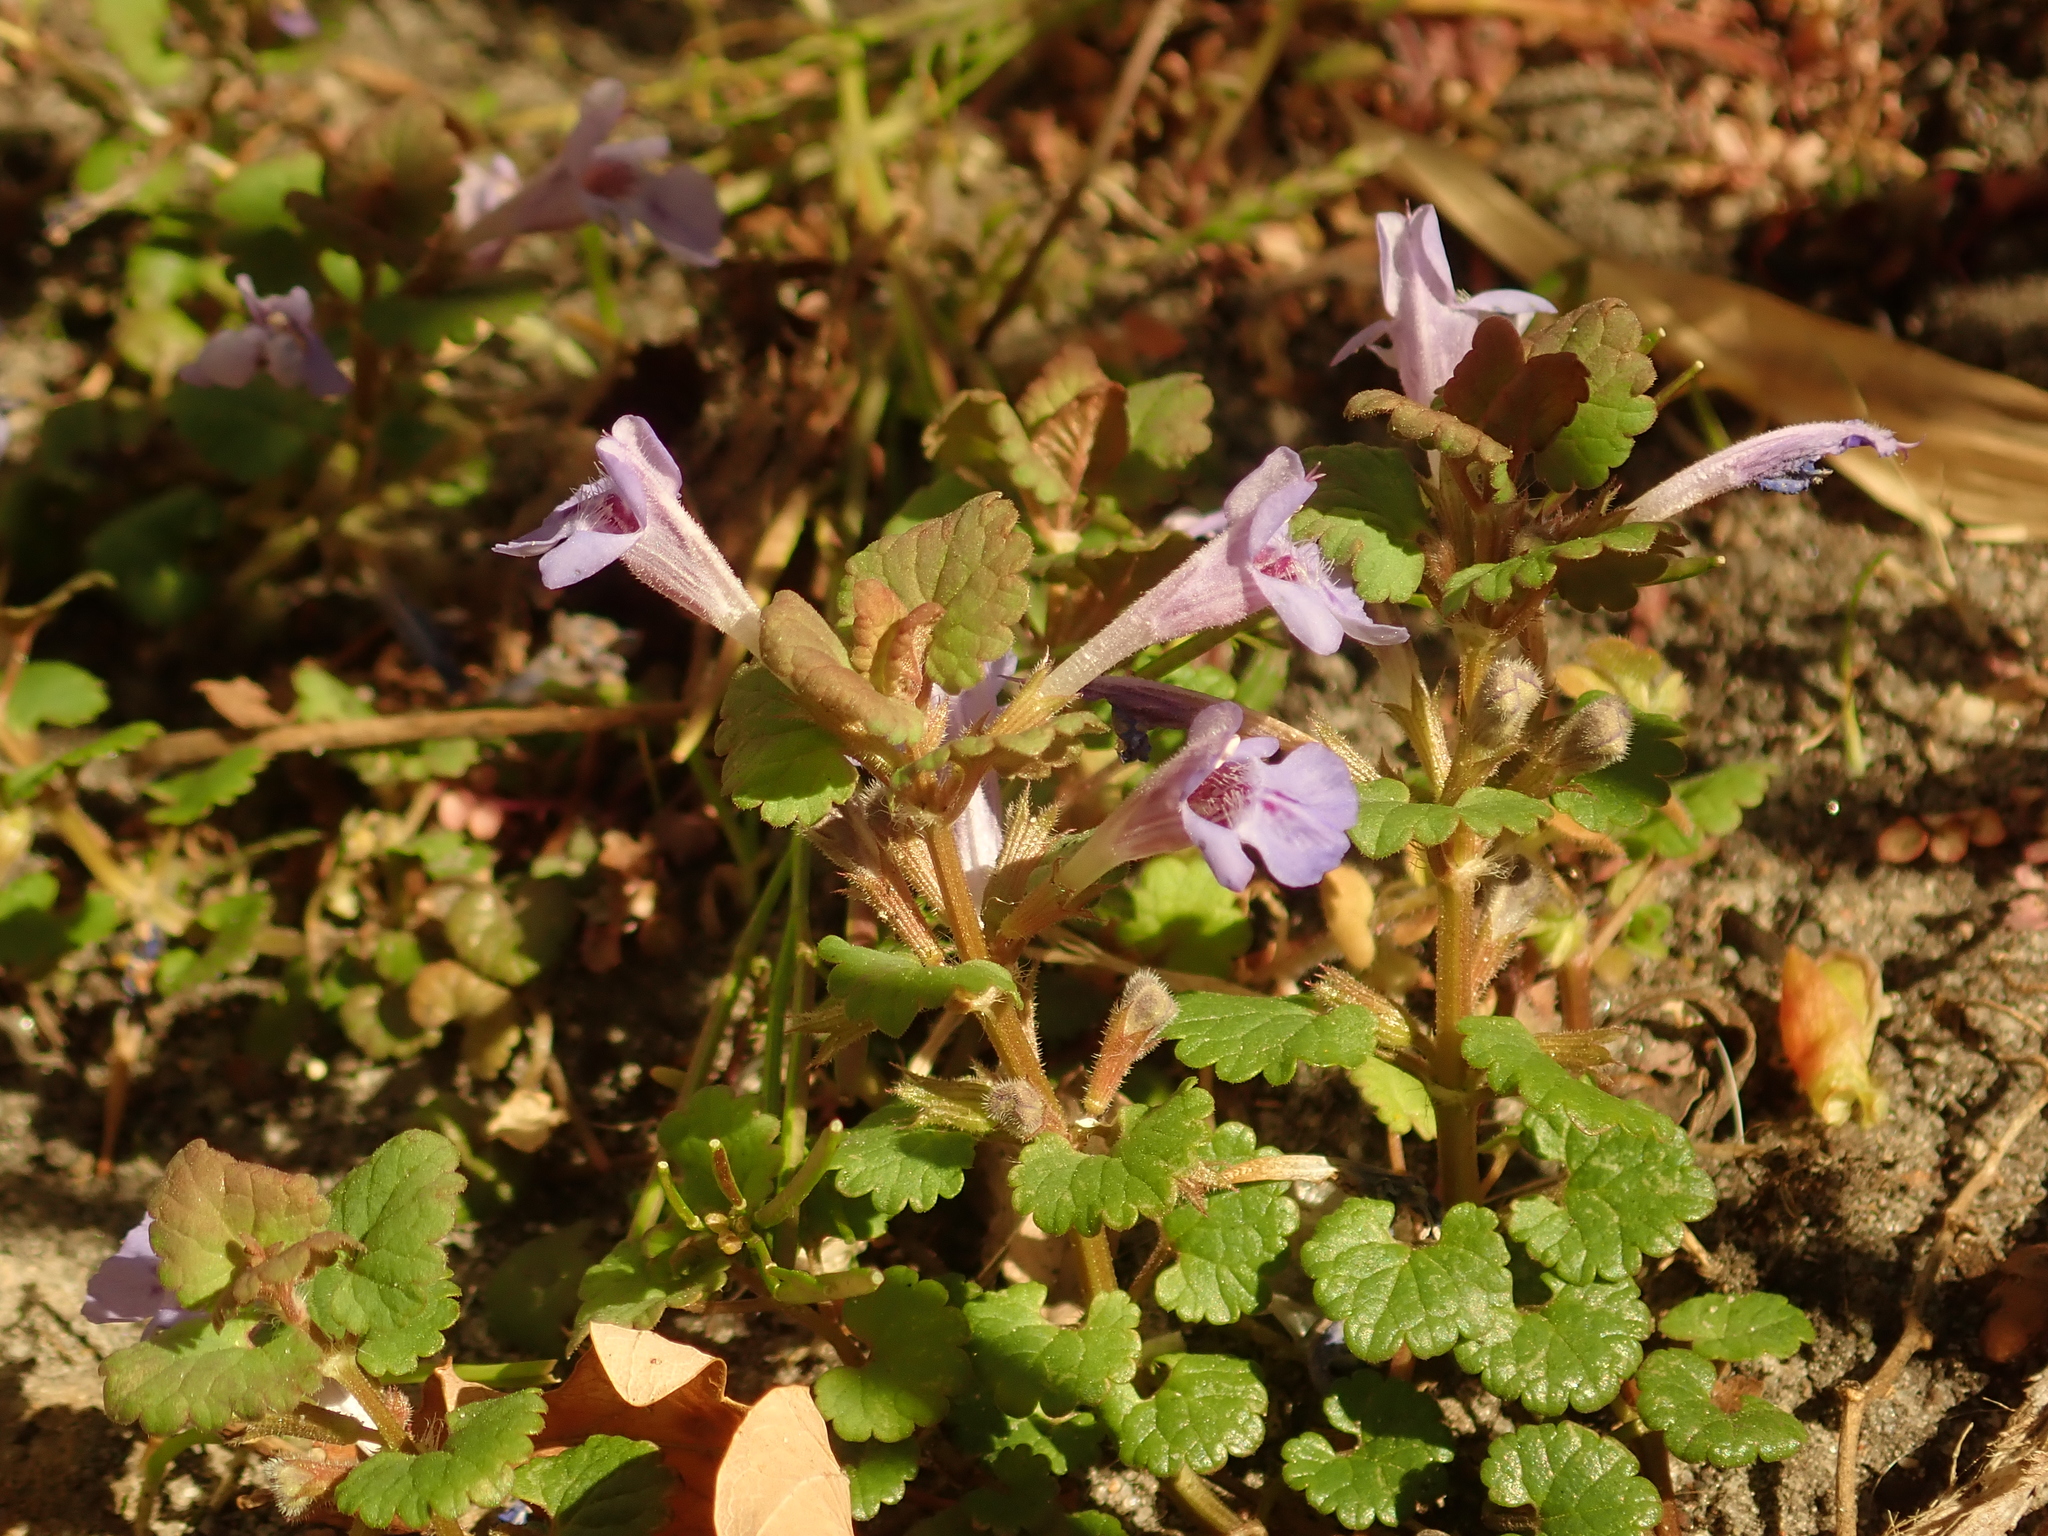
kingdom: Plantae
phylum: Tracheophyta
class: Magnoliopsida
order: Lamiales
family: Lamiaceae
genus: Glechoma
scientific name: Glechoma hederacea
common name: Ground ivy
